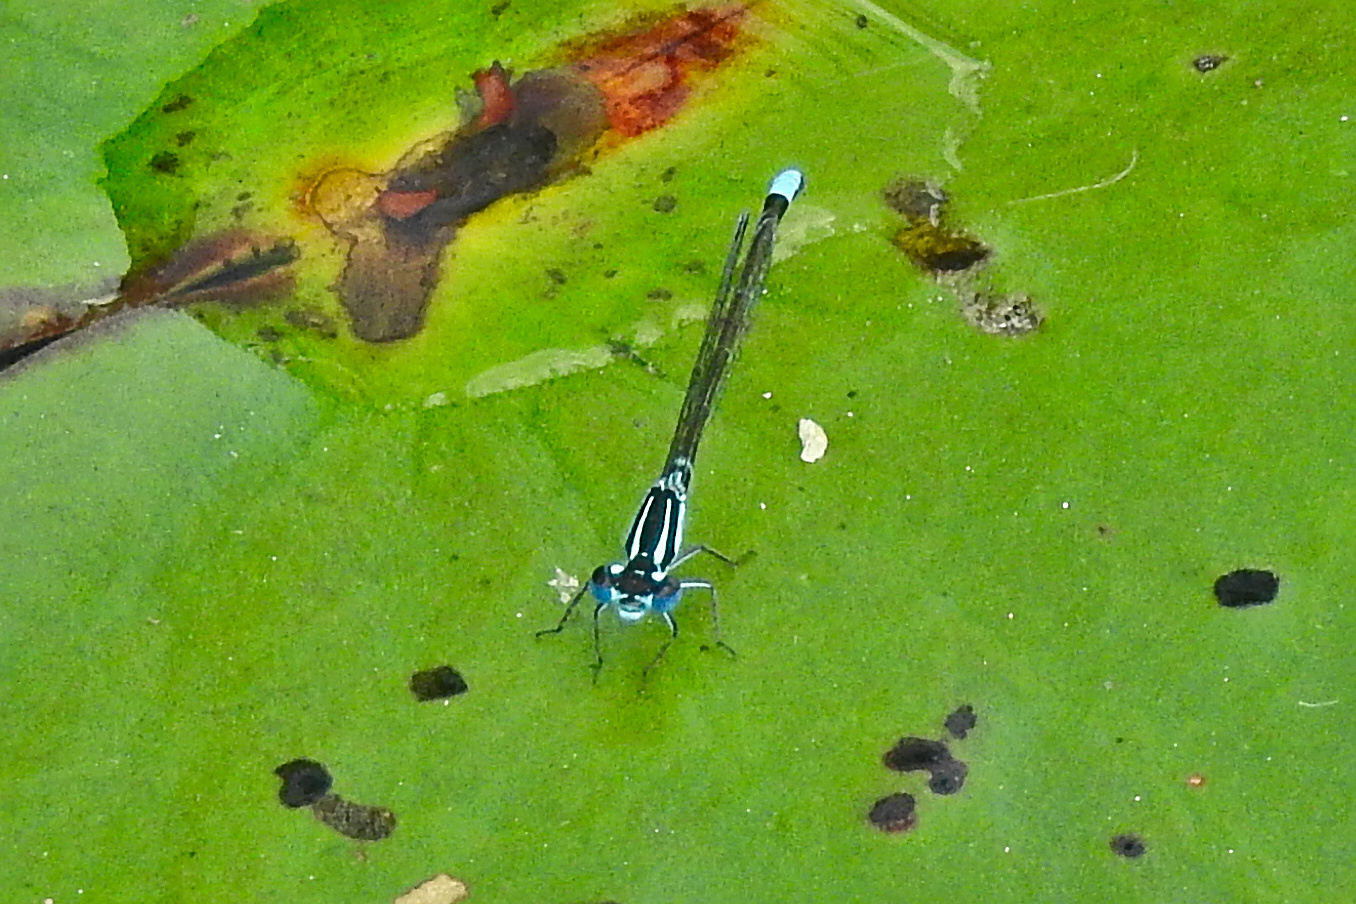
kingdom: Animalia
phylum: Arthropoda
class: Insecta
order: Odonata
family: Coenagrionidae
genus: Ischnura
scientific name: Ischnura kellicotti
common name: Lilypad forktail
